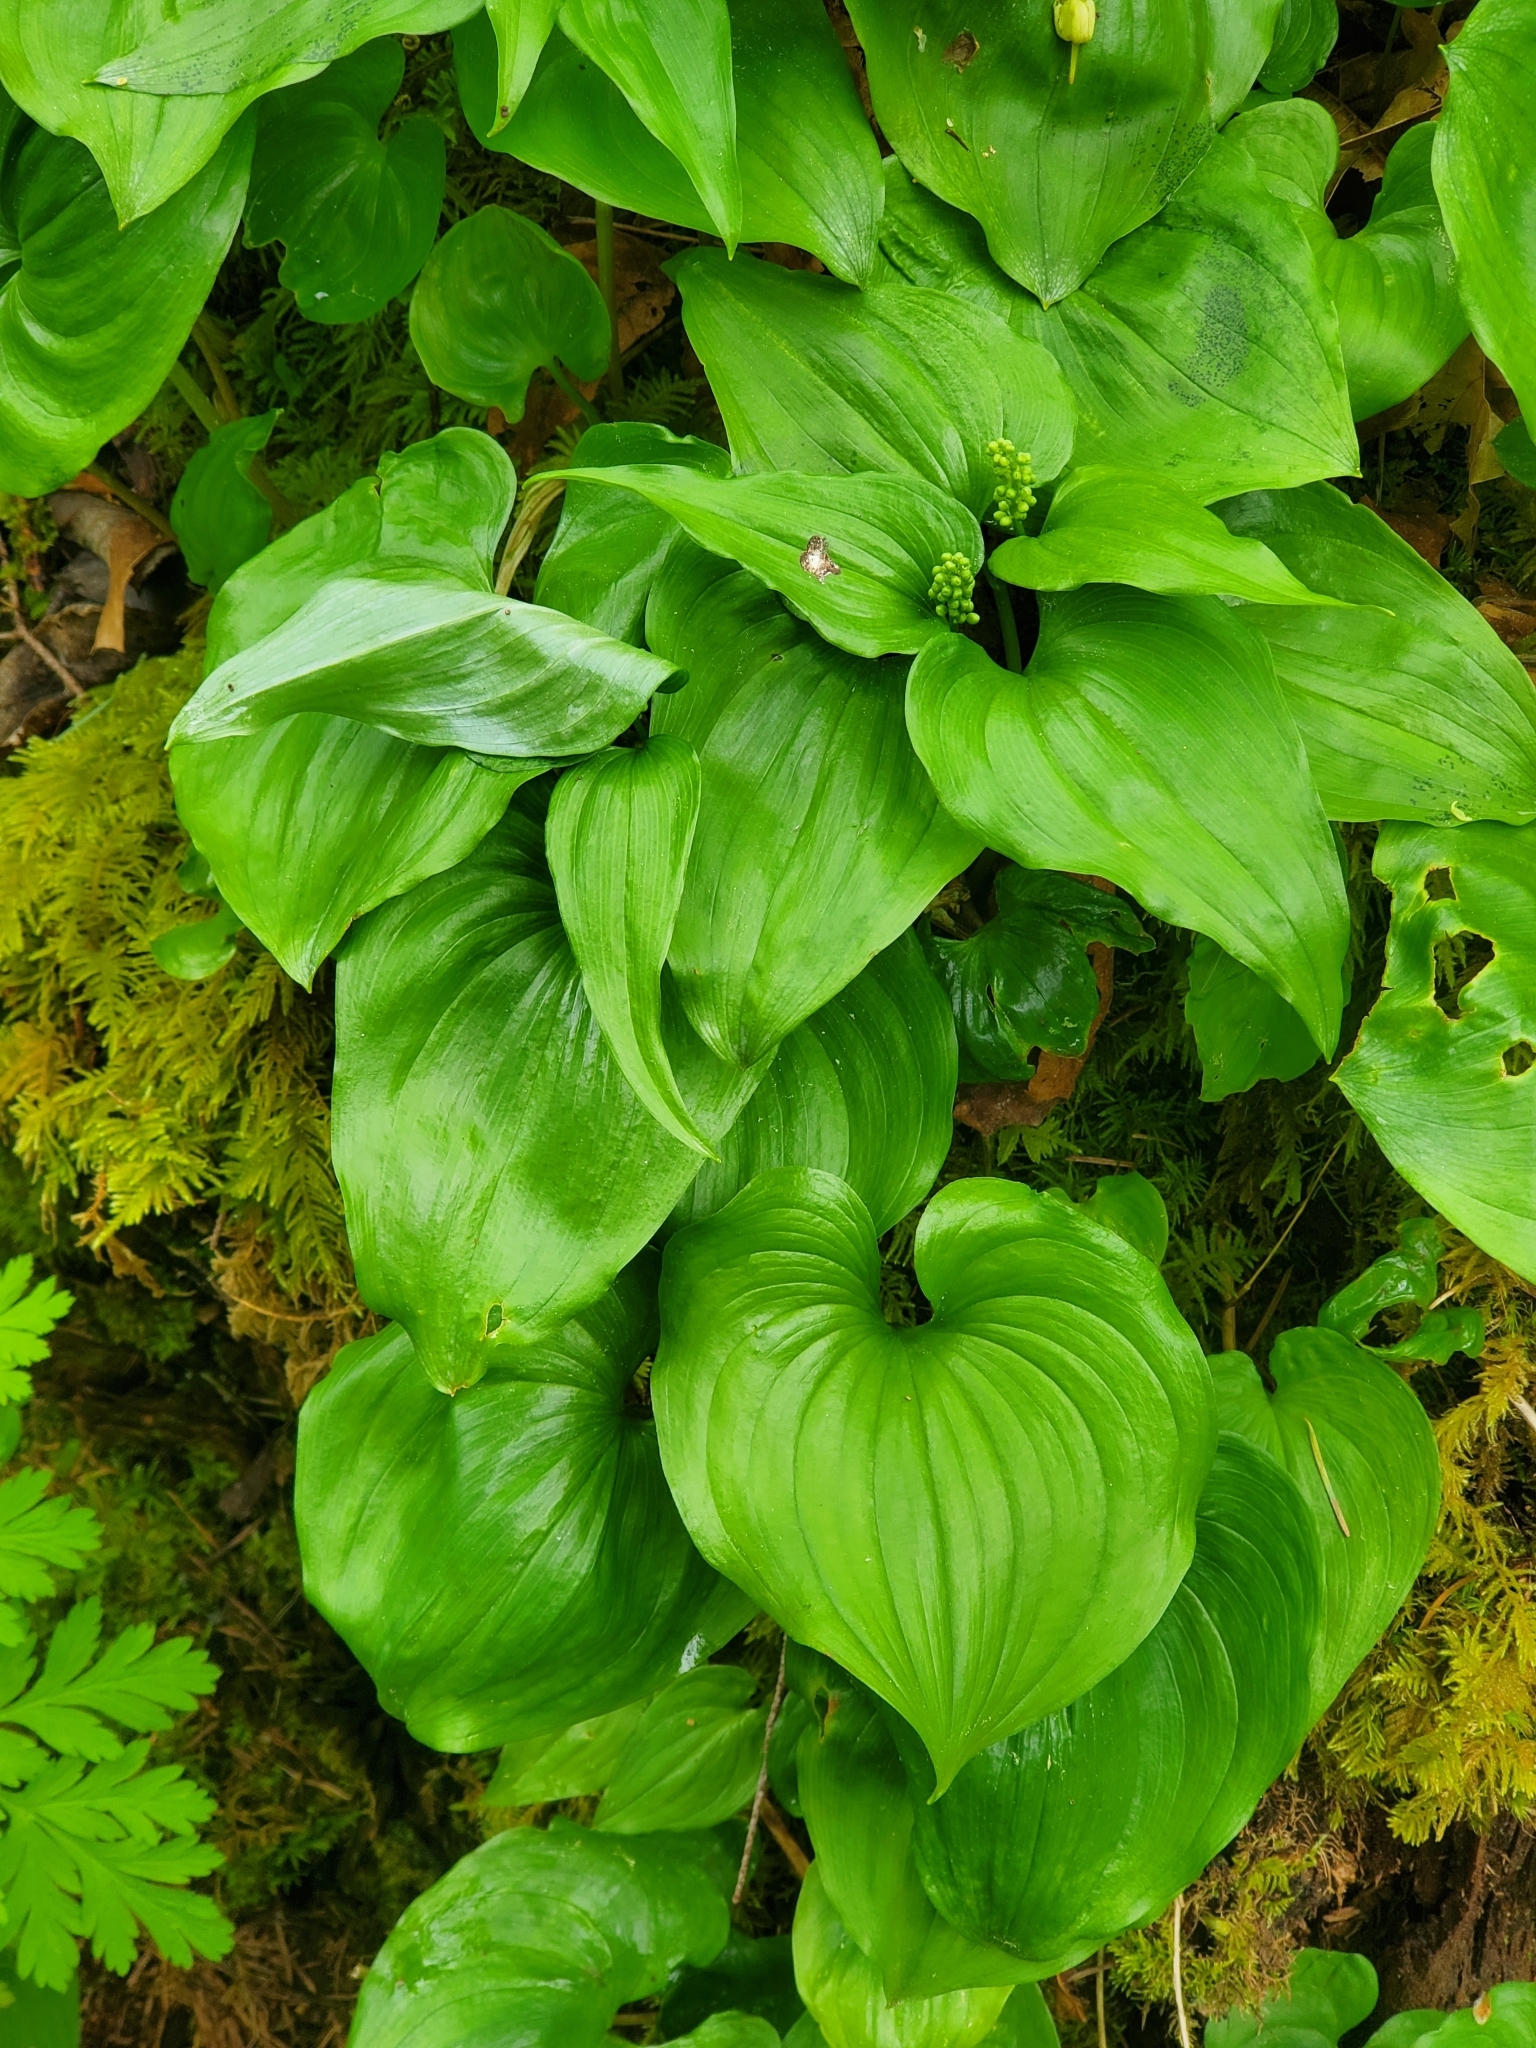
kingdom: Plantae
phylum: Tracheophyta
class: Liliopsida
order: Asparagales
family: Asparagaceae
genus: Maianthemum
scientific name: Maianthemum dilatatum
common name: False lily-of-the-valley
